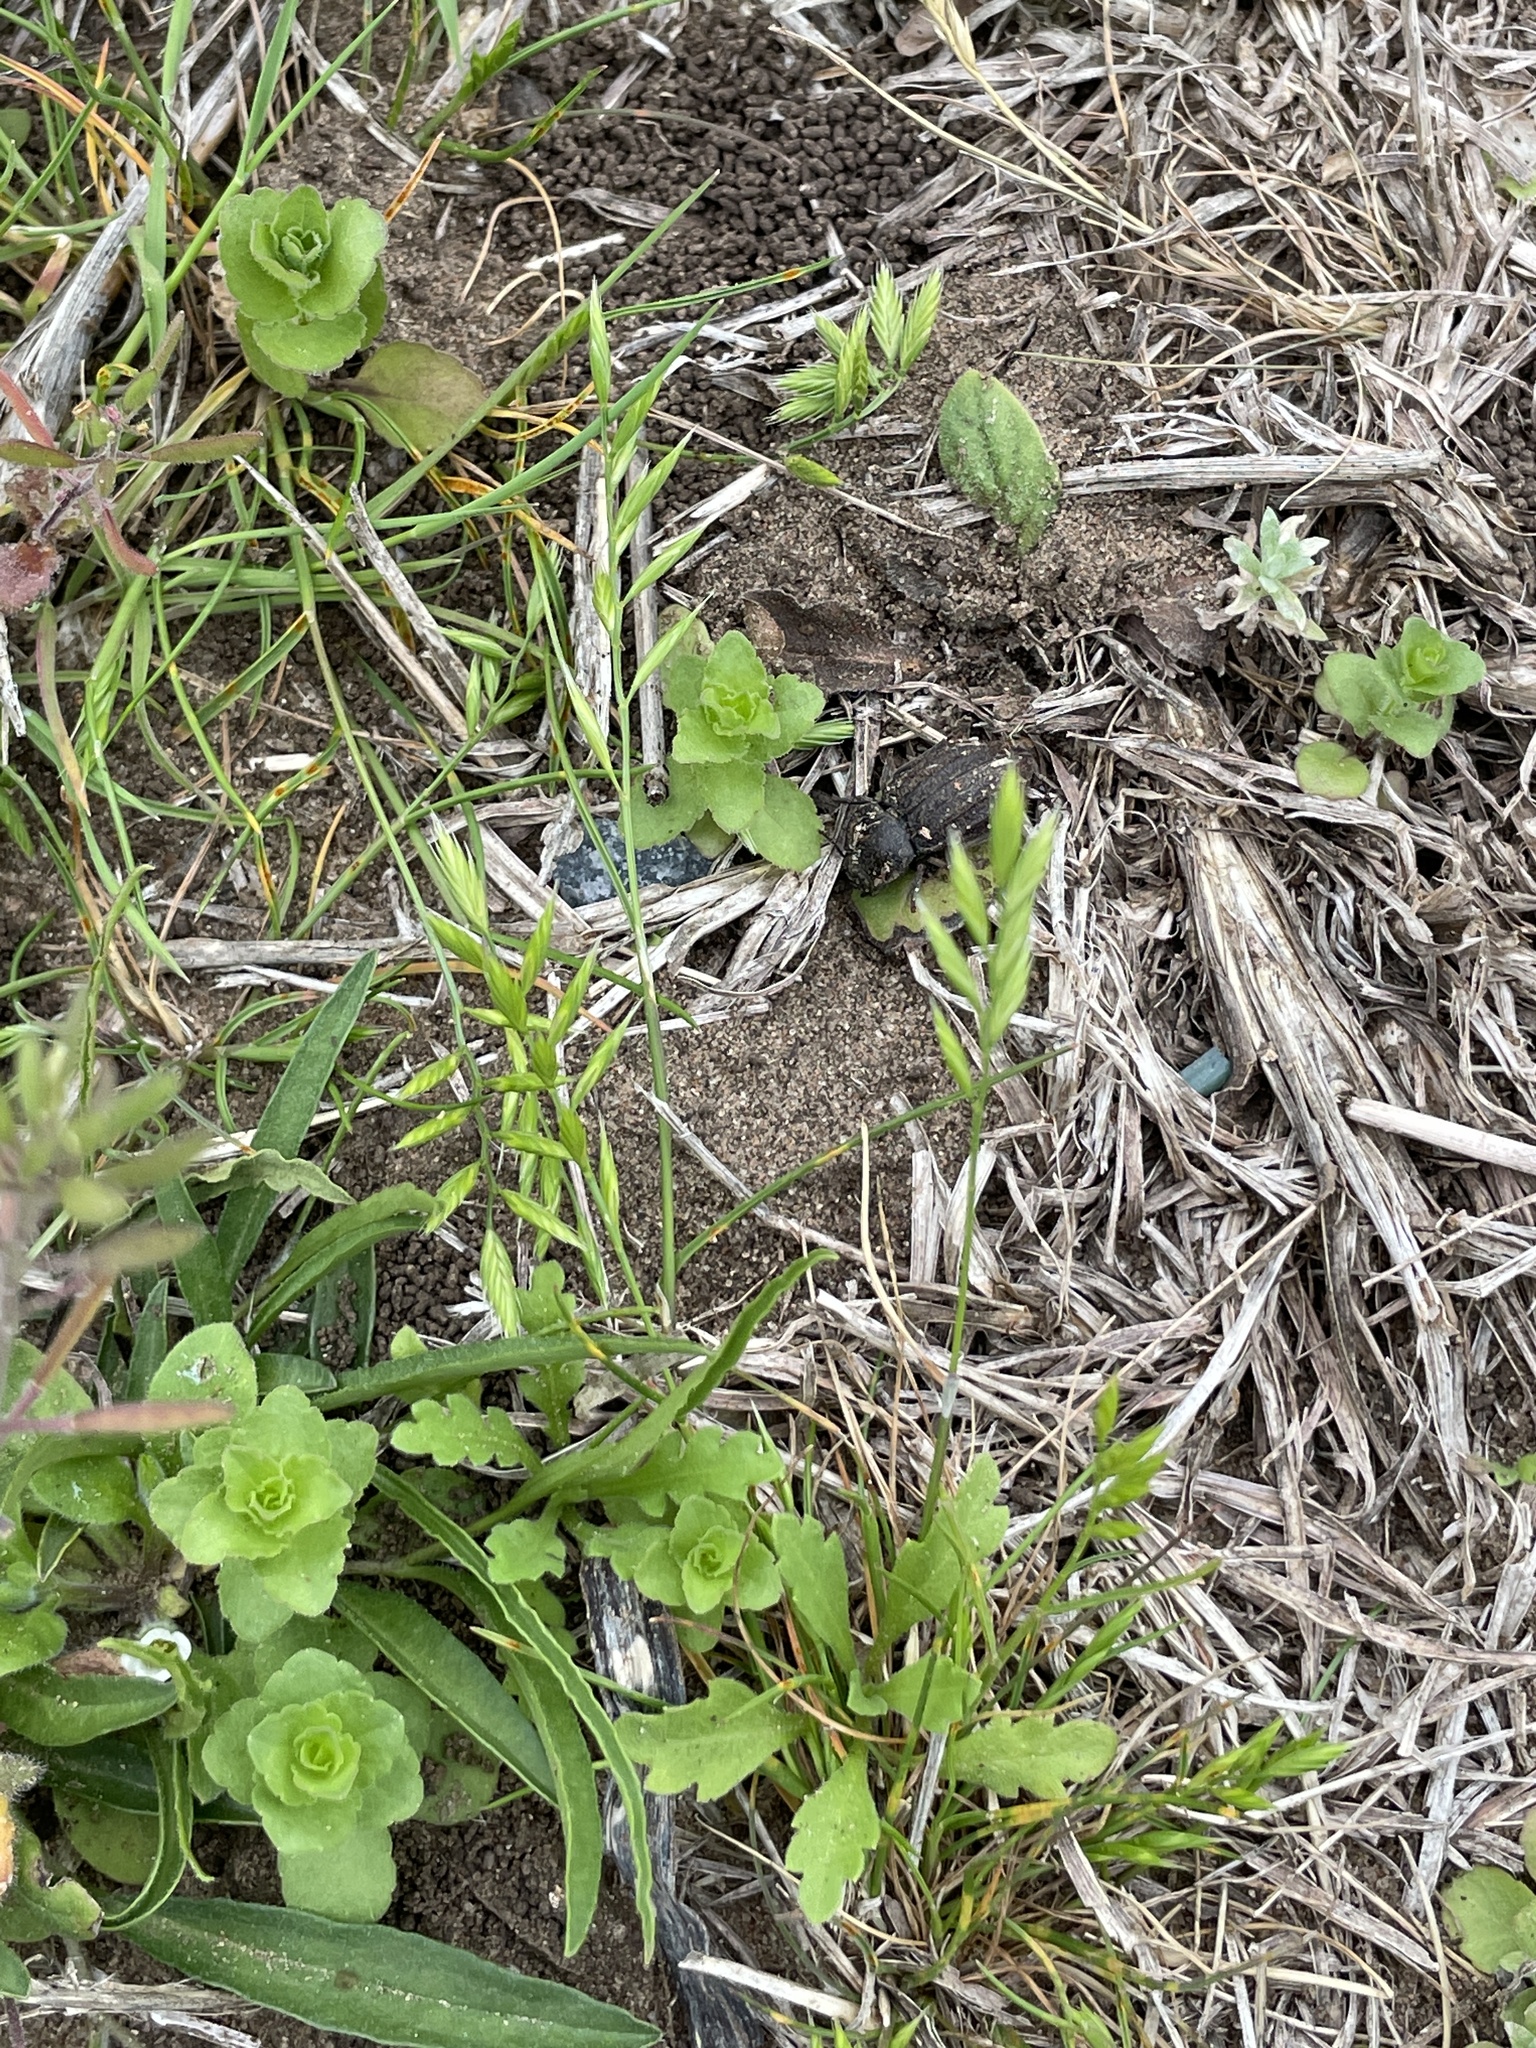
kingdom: Plantae
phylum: Tracheophyta
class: Liliopsida
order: Poales
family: Poaceae
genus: Festuca
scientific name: Festuca octoflora
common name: Sixweeks grass
